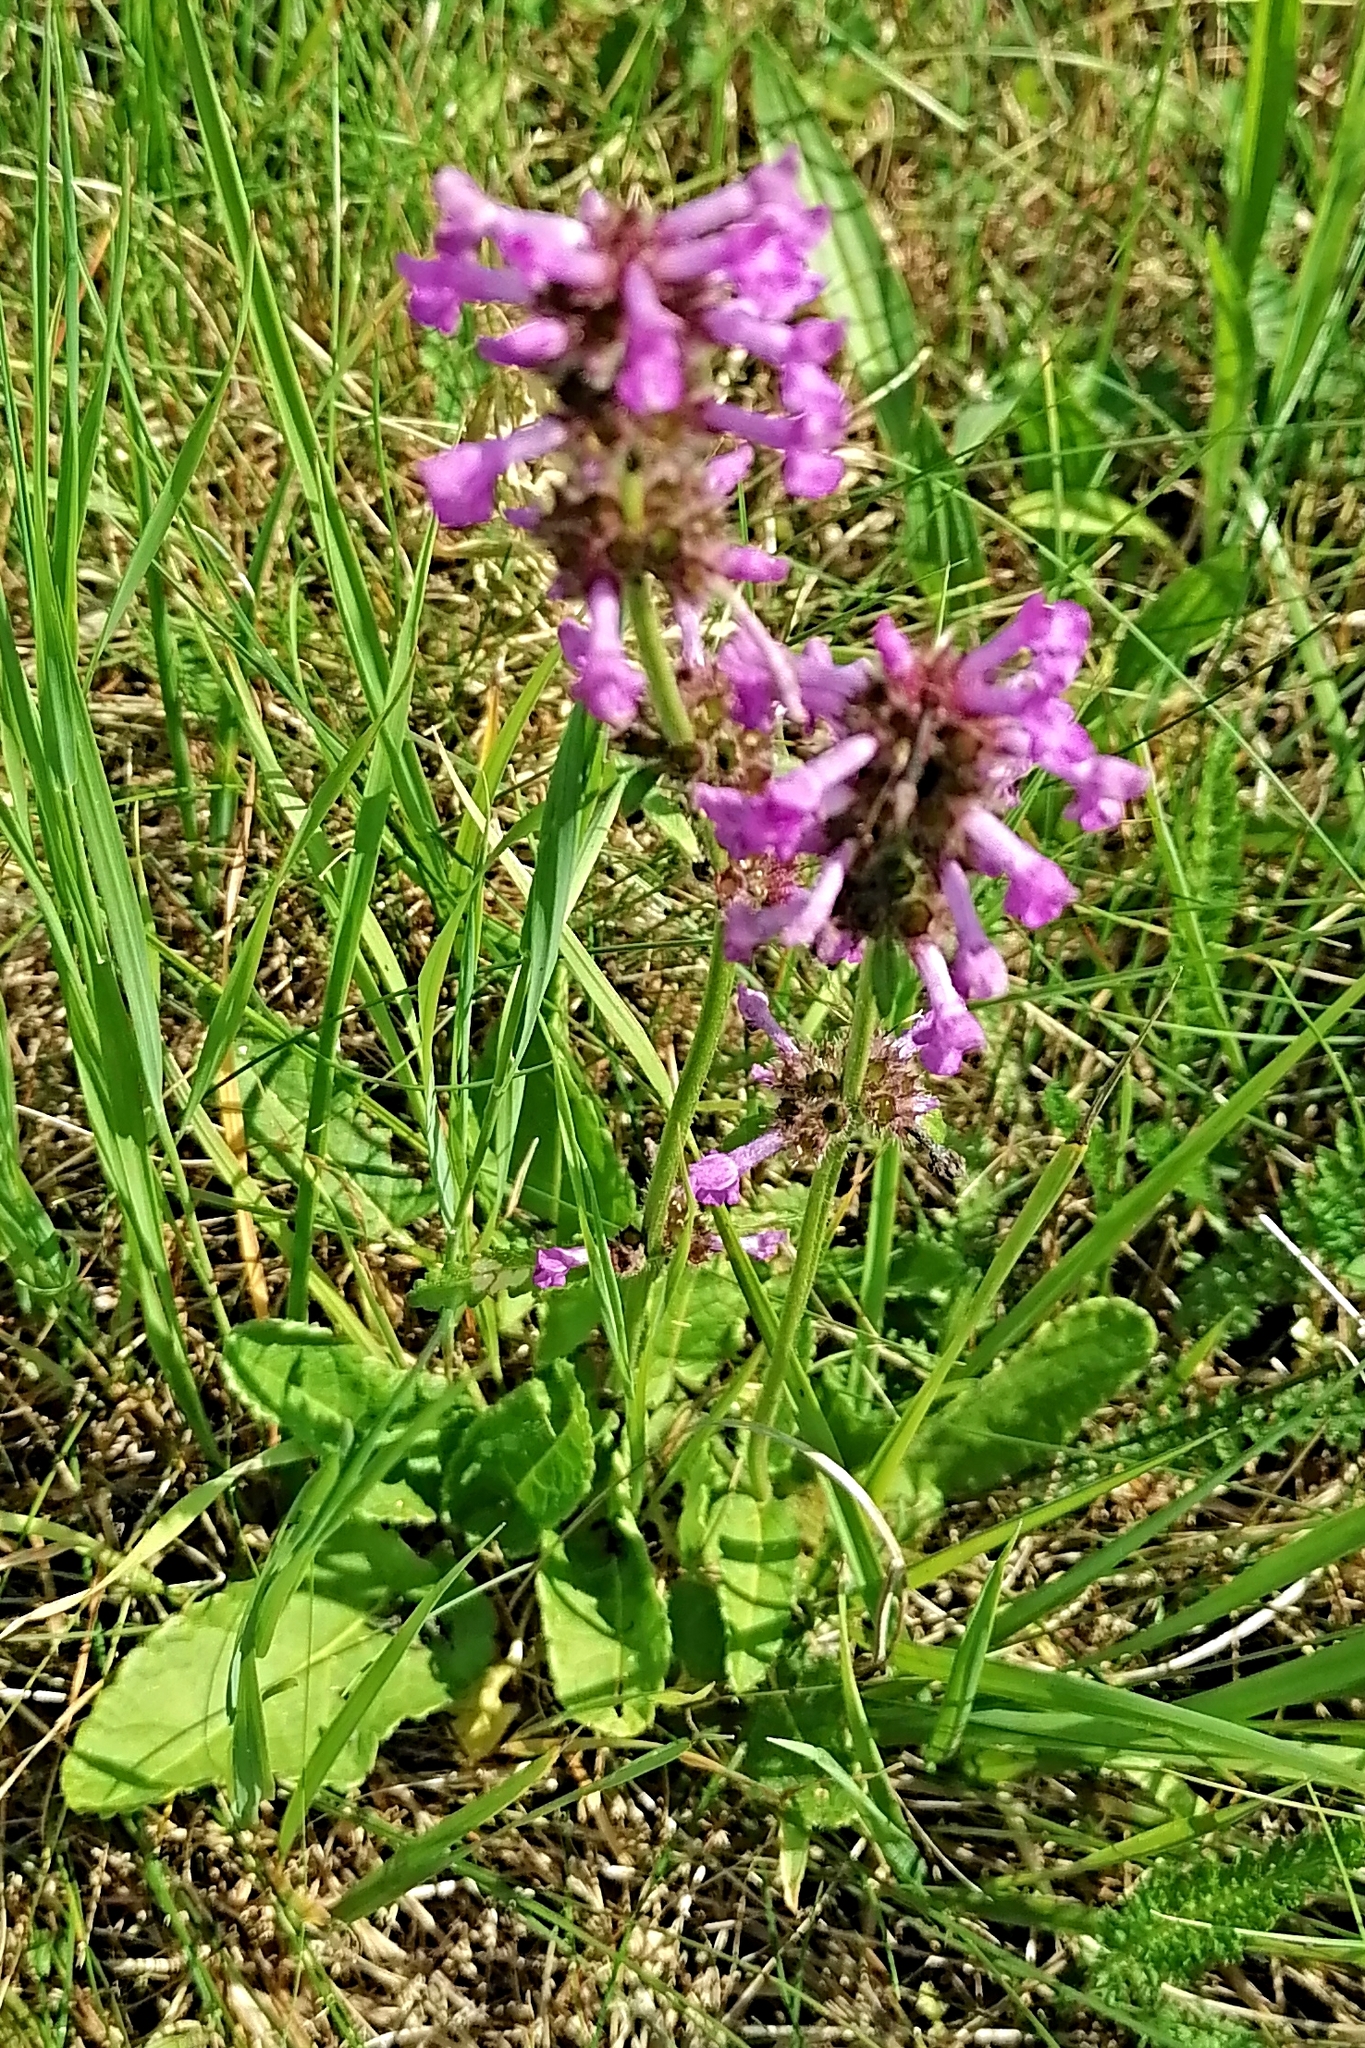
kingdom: Plantae
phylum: Tracheophyta
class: Magnoliopsida
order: Lamiales
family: Lamiaceae
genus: Betonica
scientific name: Betonica officinalis
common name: Bishop's-wort
